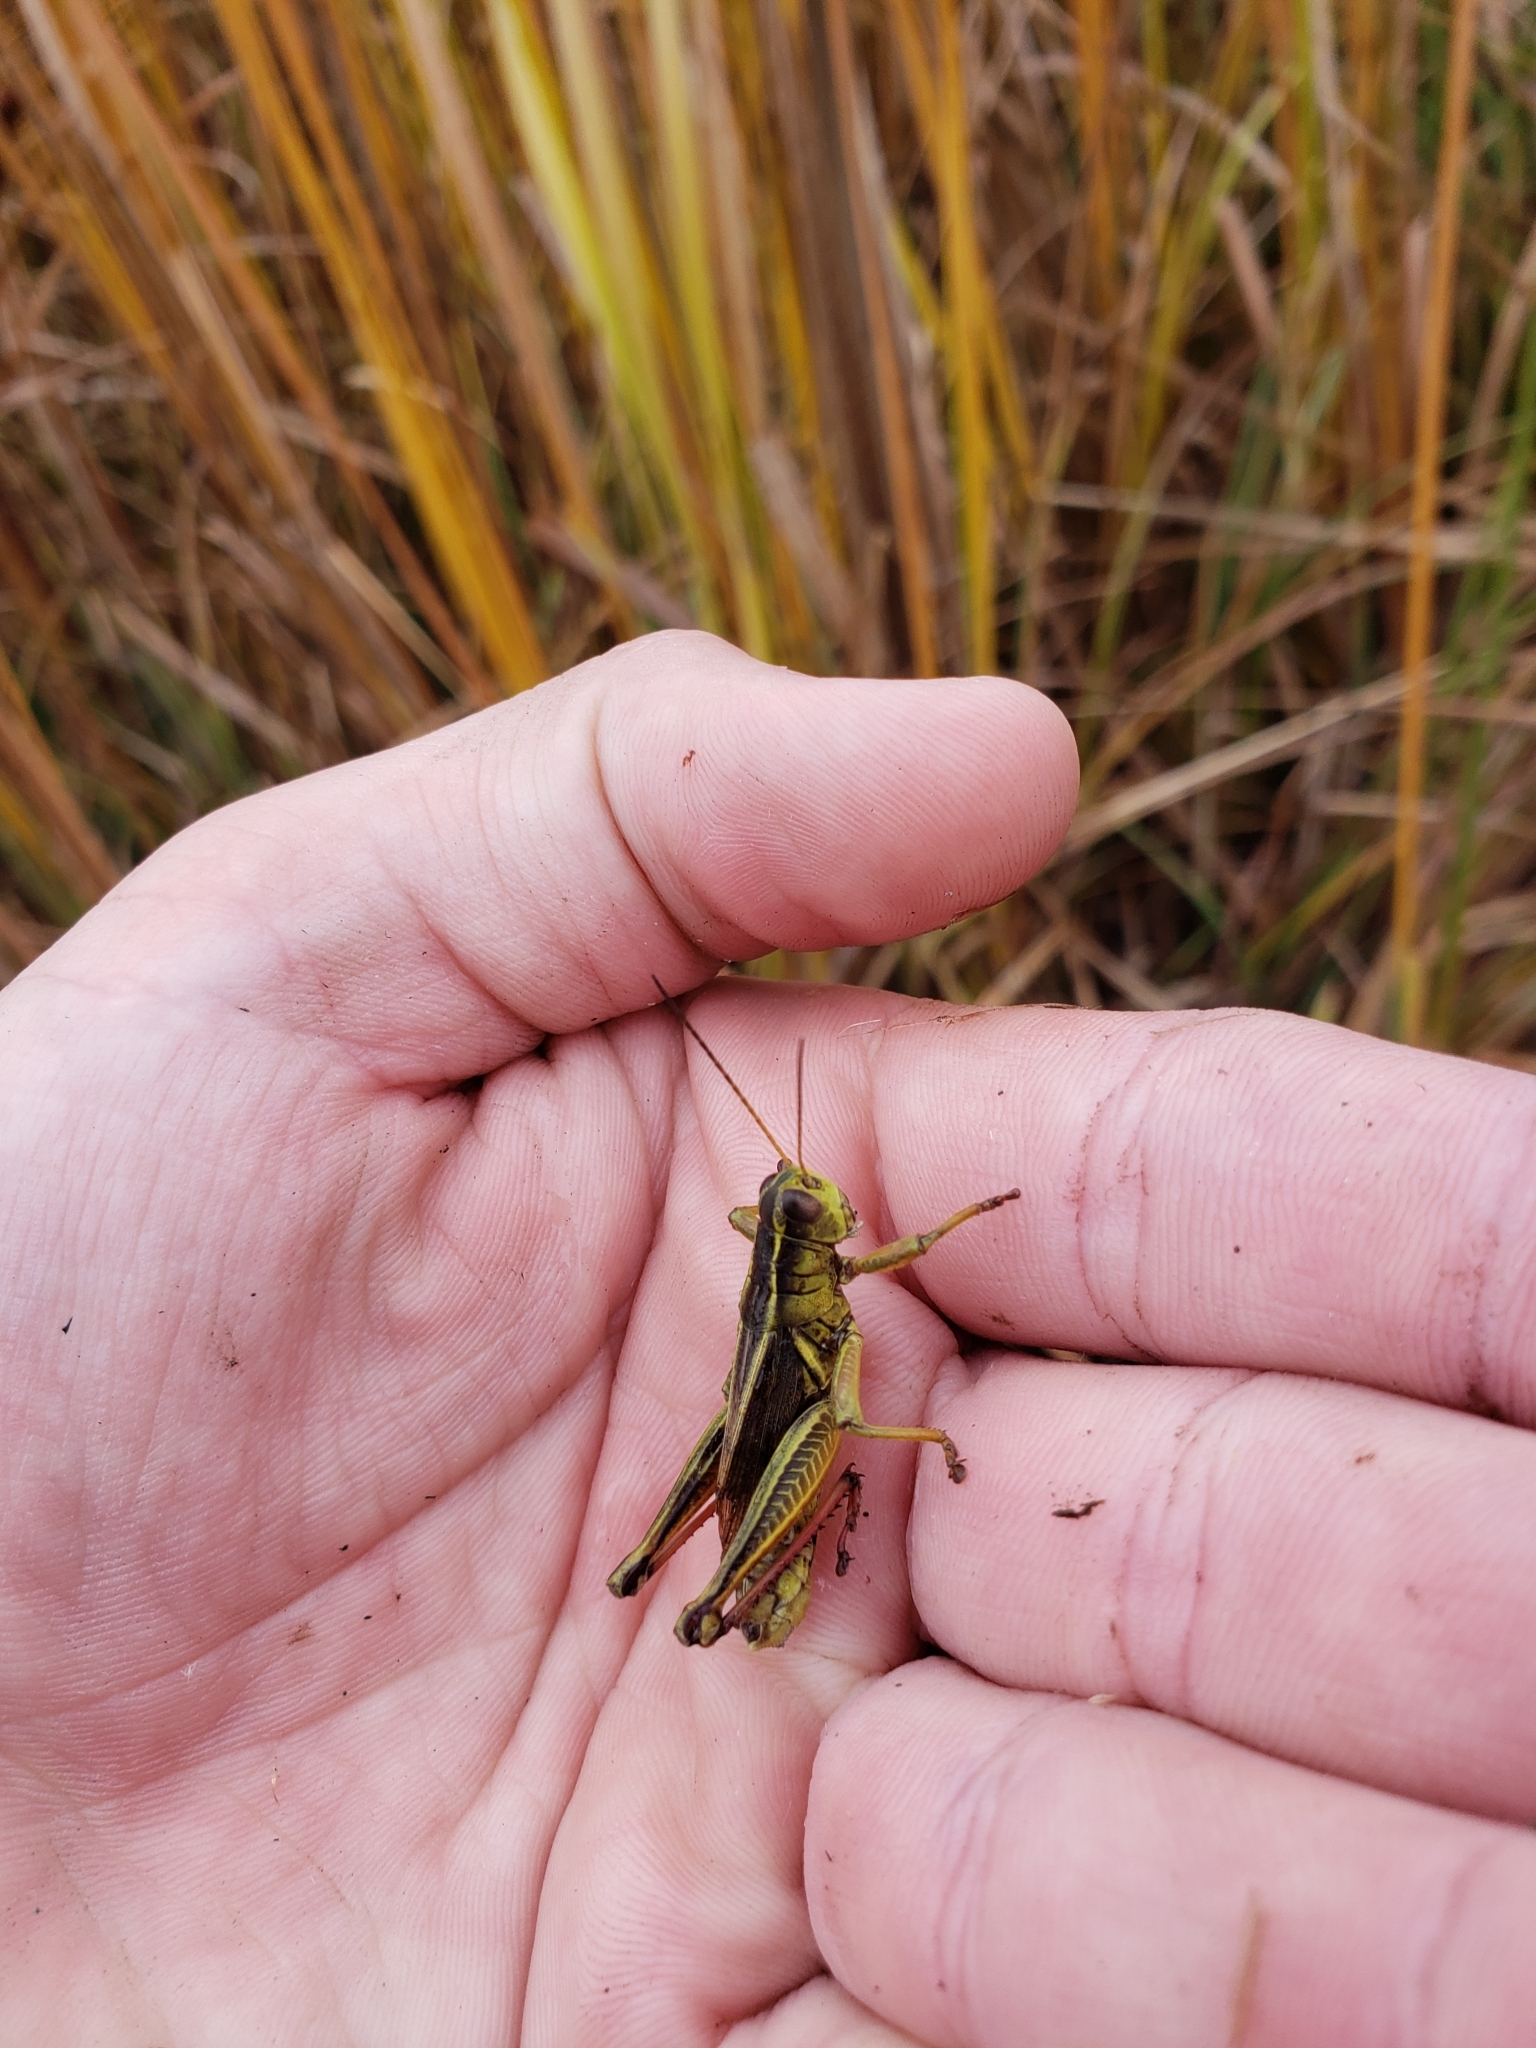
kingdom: Animalia
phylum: Arthropoda
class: Insecta
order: Orthoptera
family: Acrididae
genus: Melanoplus
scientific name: Melanoplus bivittatus
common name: Two-striped grasshopper
